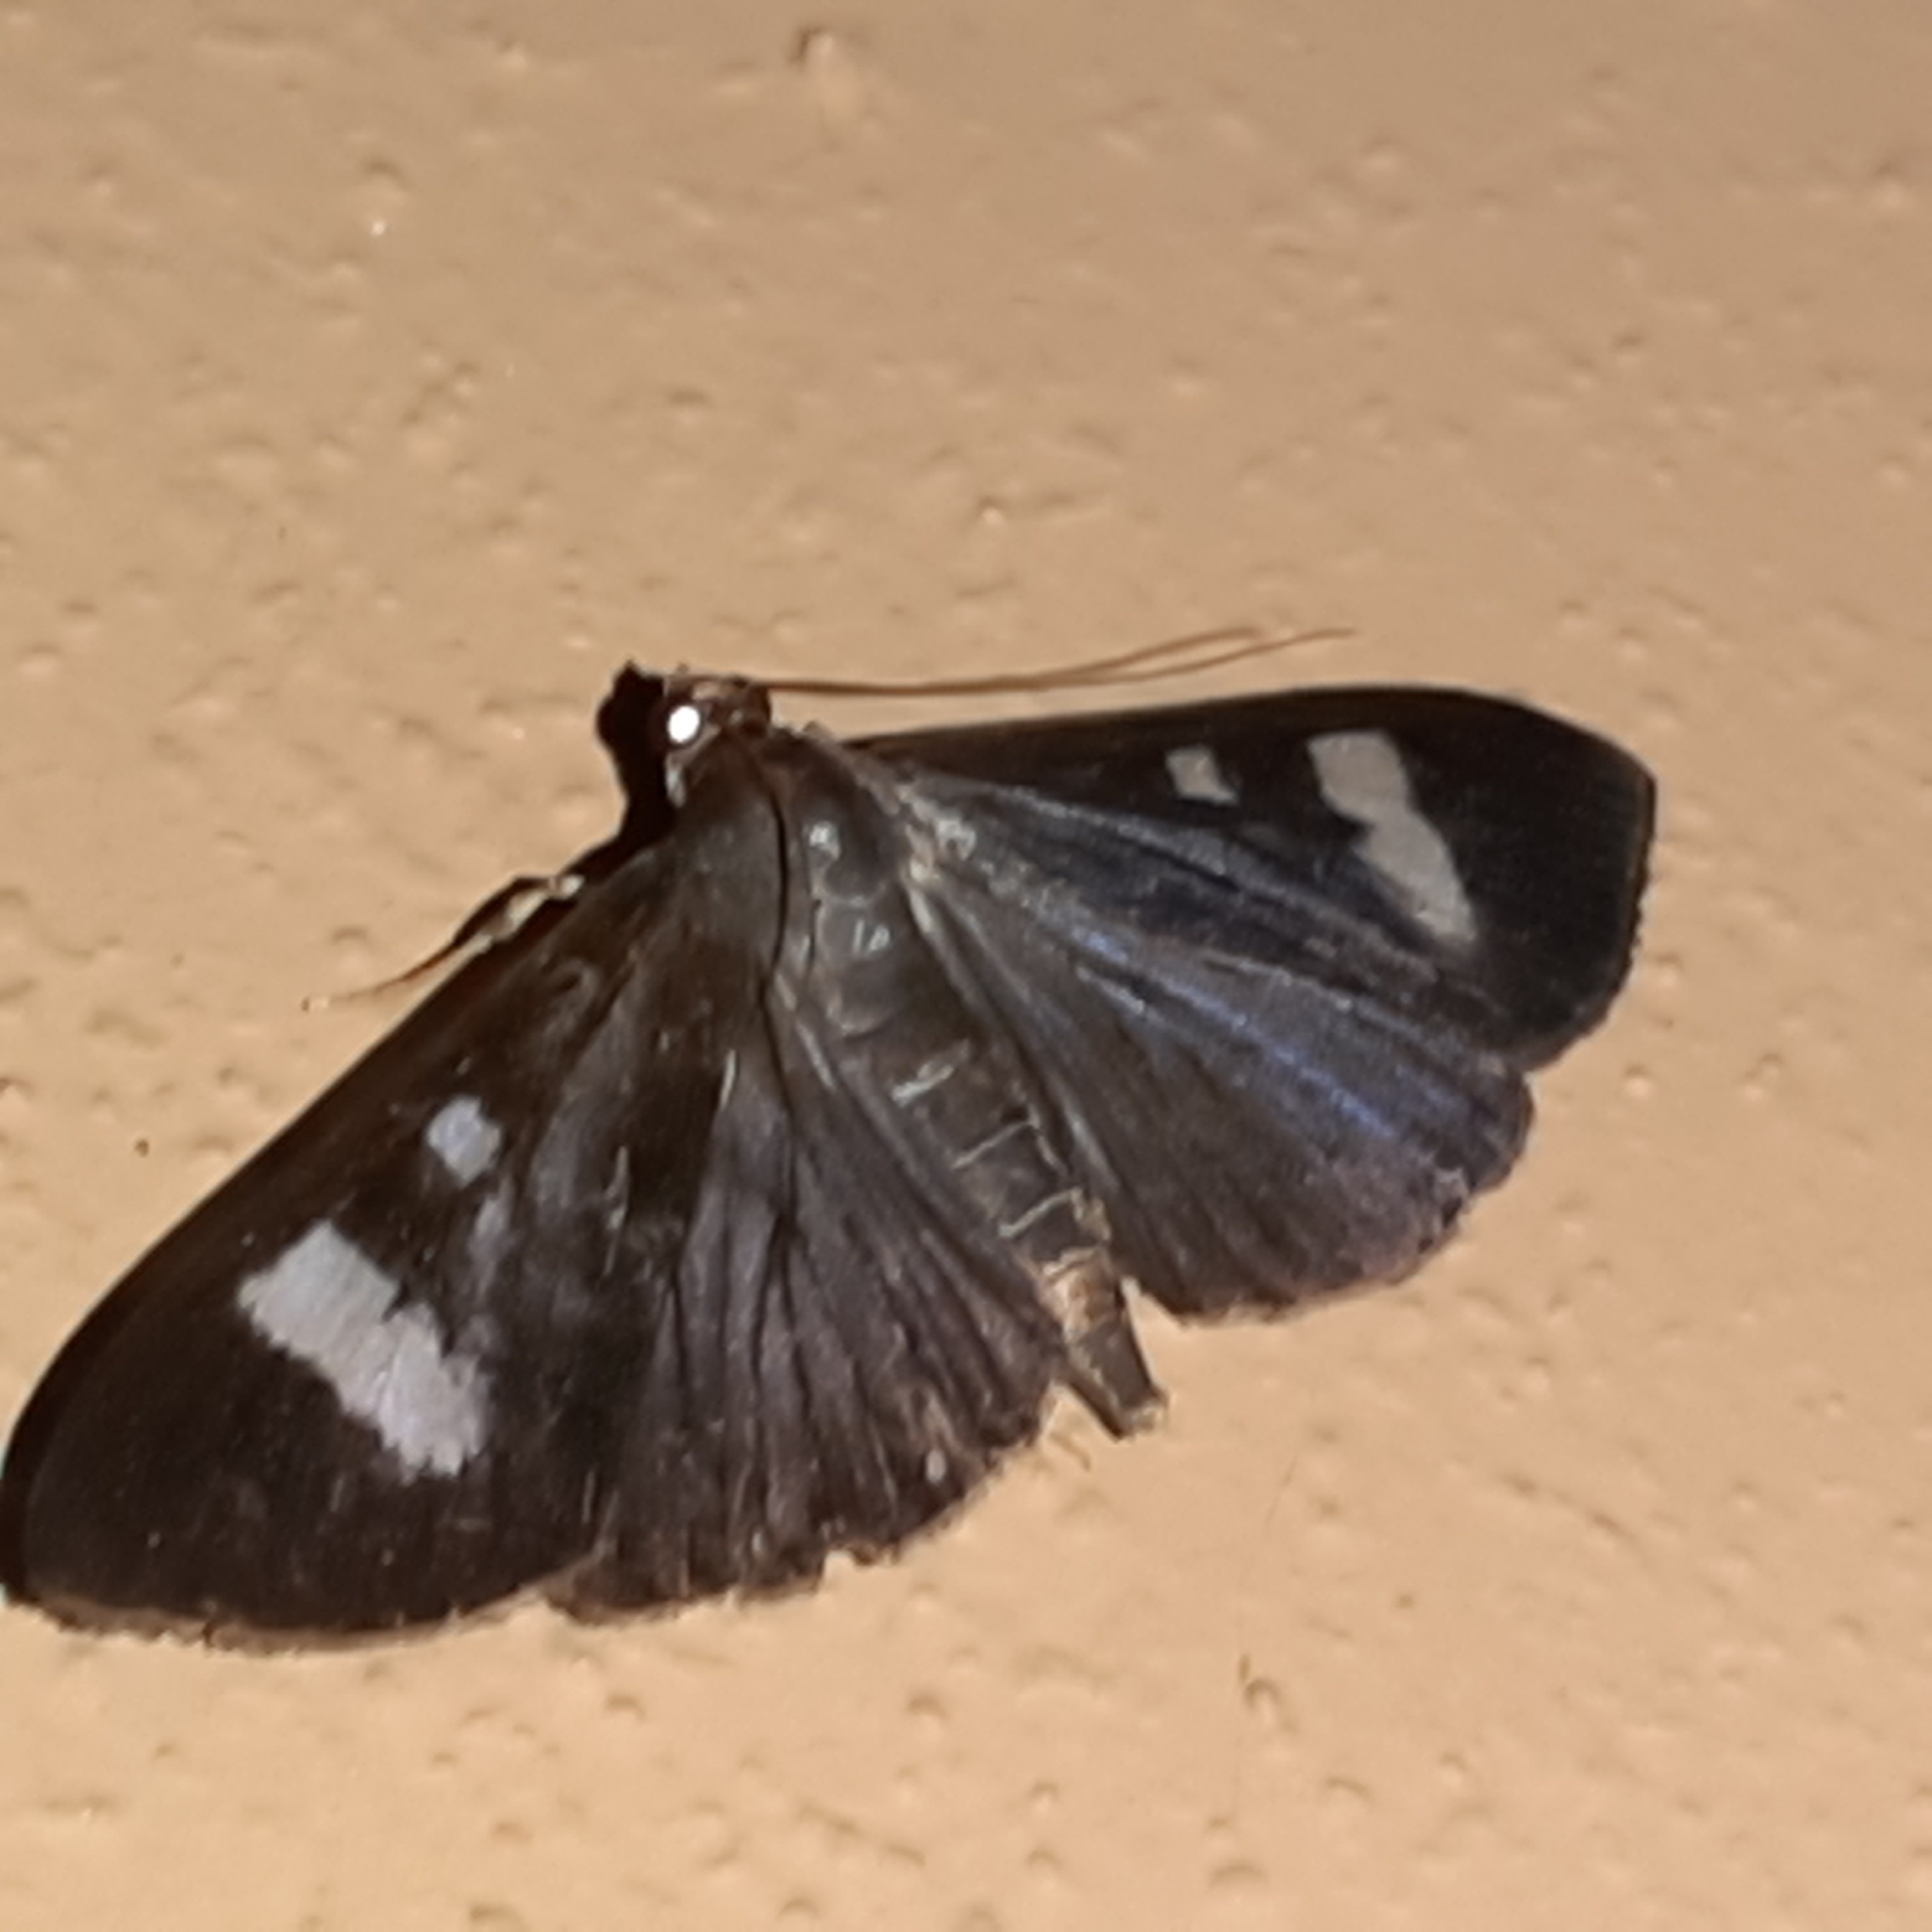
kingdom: Animalia
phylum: Arthropoda
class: Insecta
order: Lepidoptera
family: Crambidae
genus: Phostria
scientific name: Phostria Erilusa leucoplagialis
